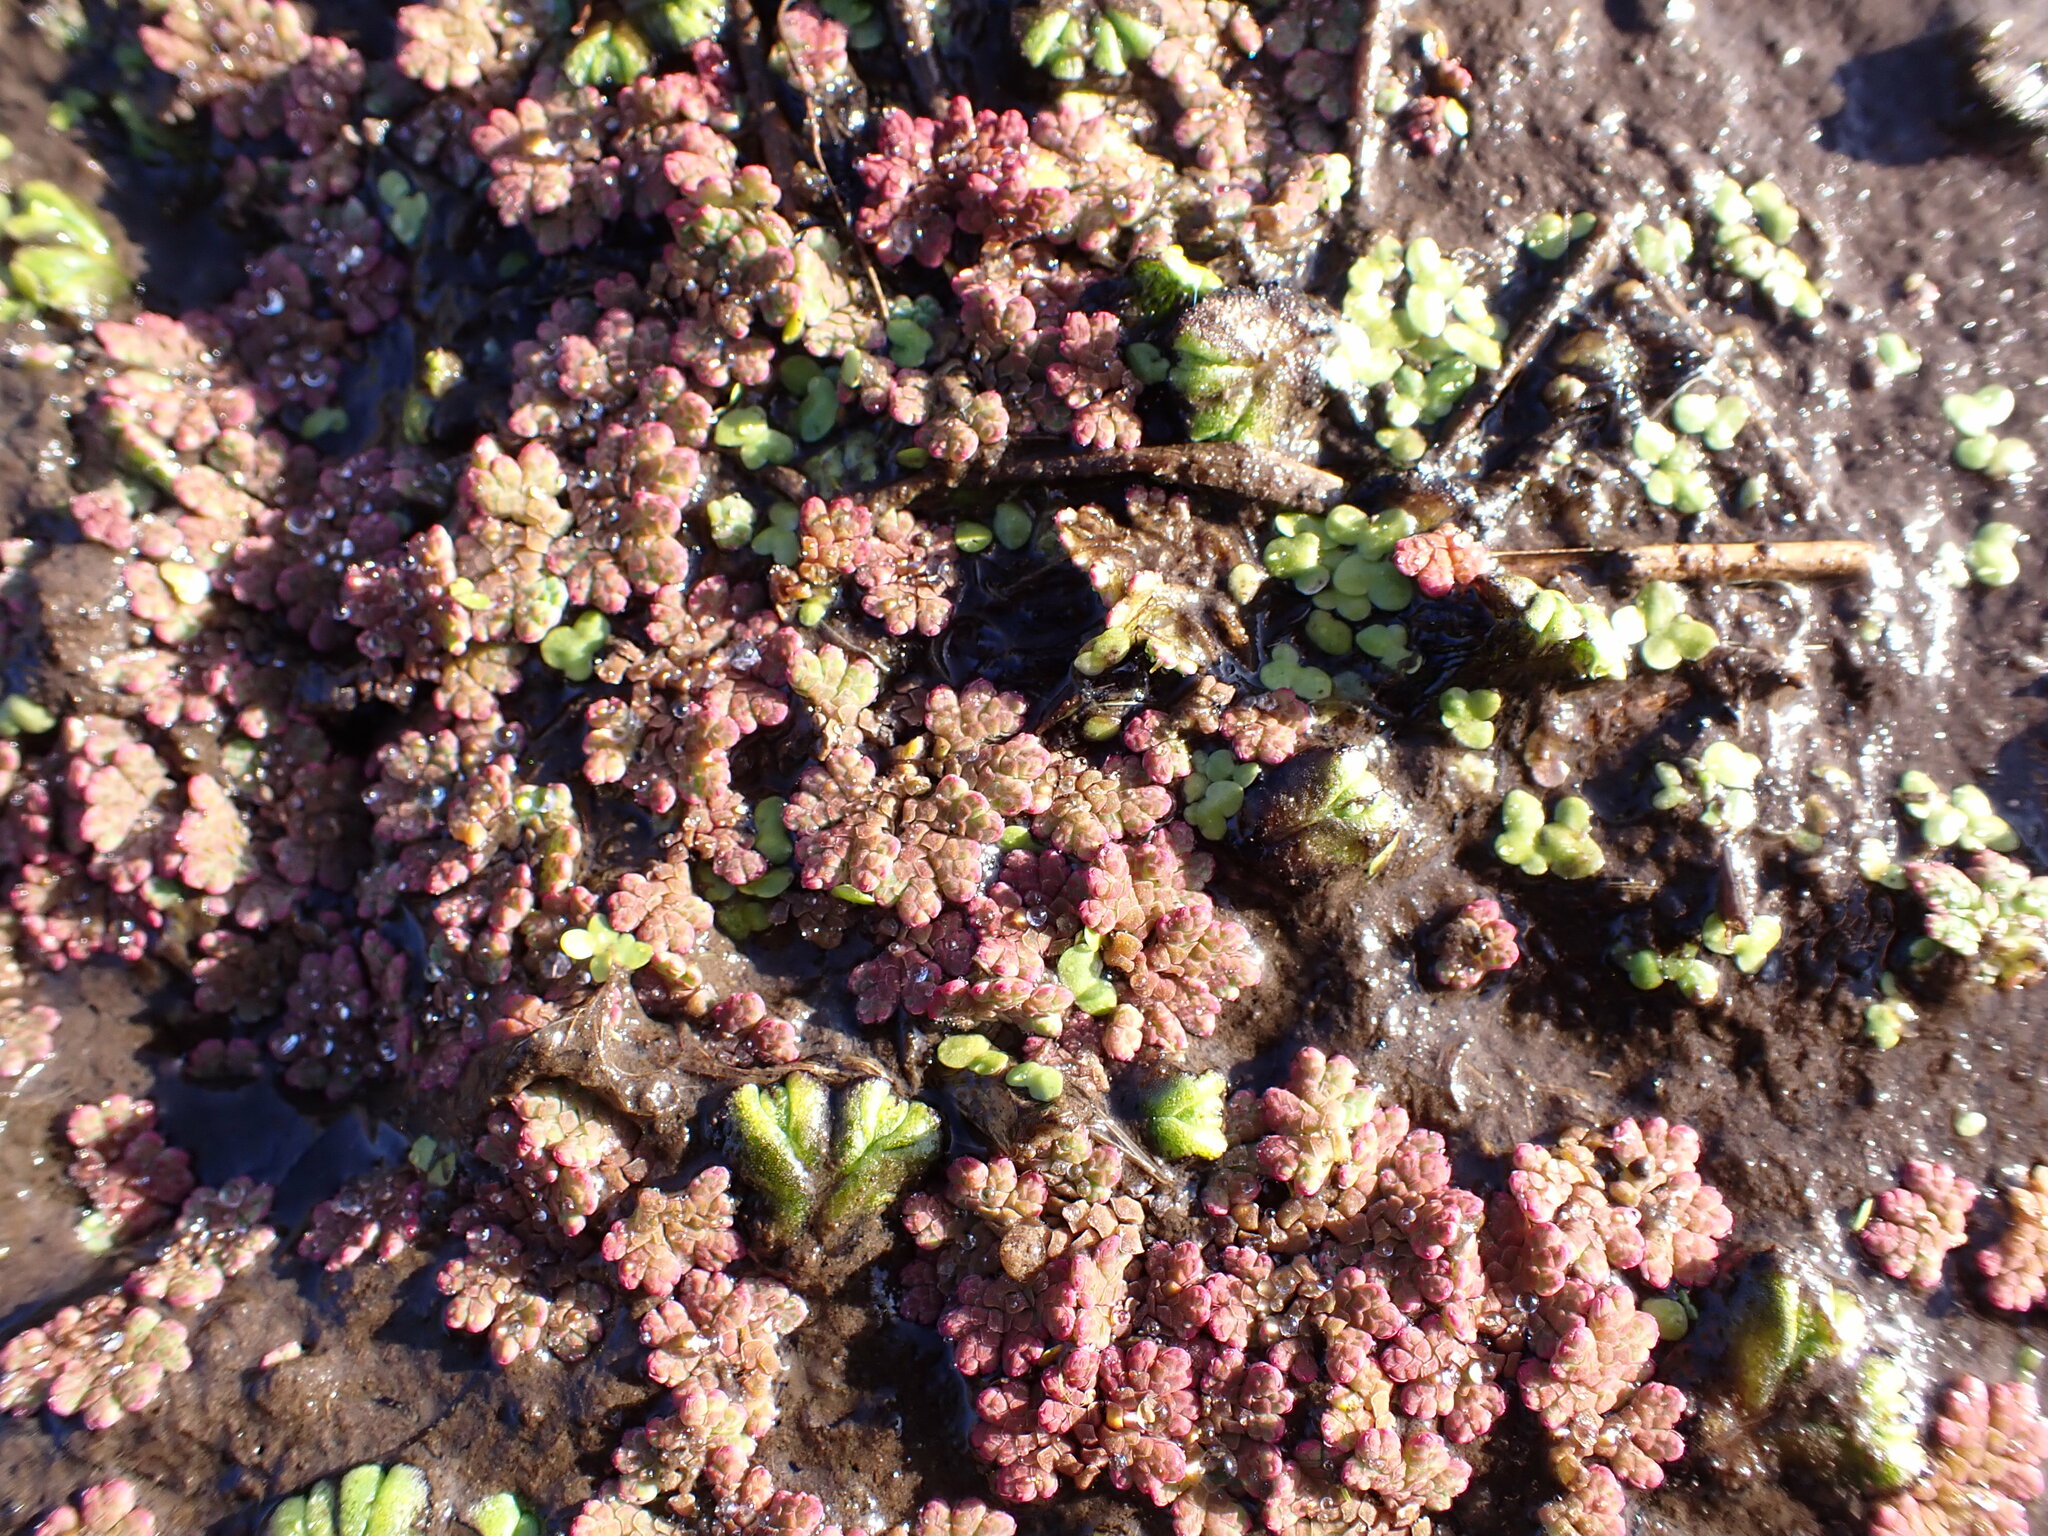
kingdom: Plantae
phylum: Tracheophyta
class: Polypodiopsida
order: Salviniales
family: Salviniaceae
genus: Azolla
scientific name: Azolla rubra
